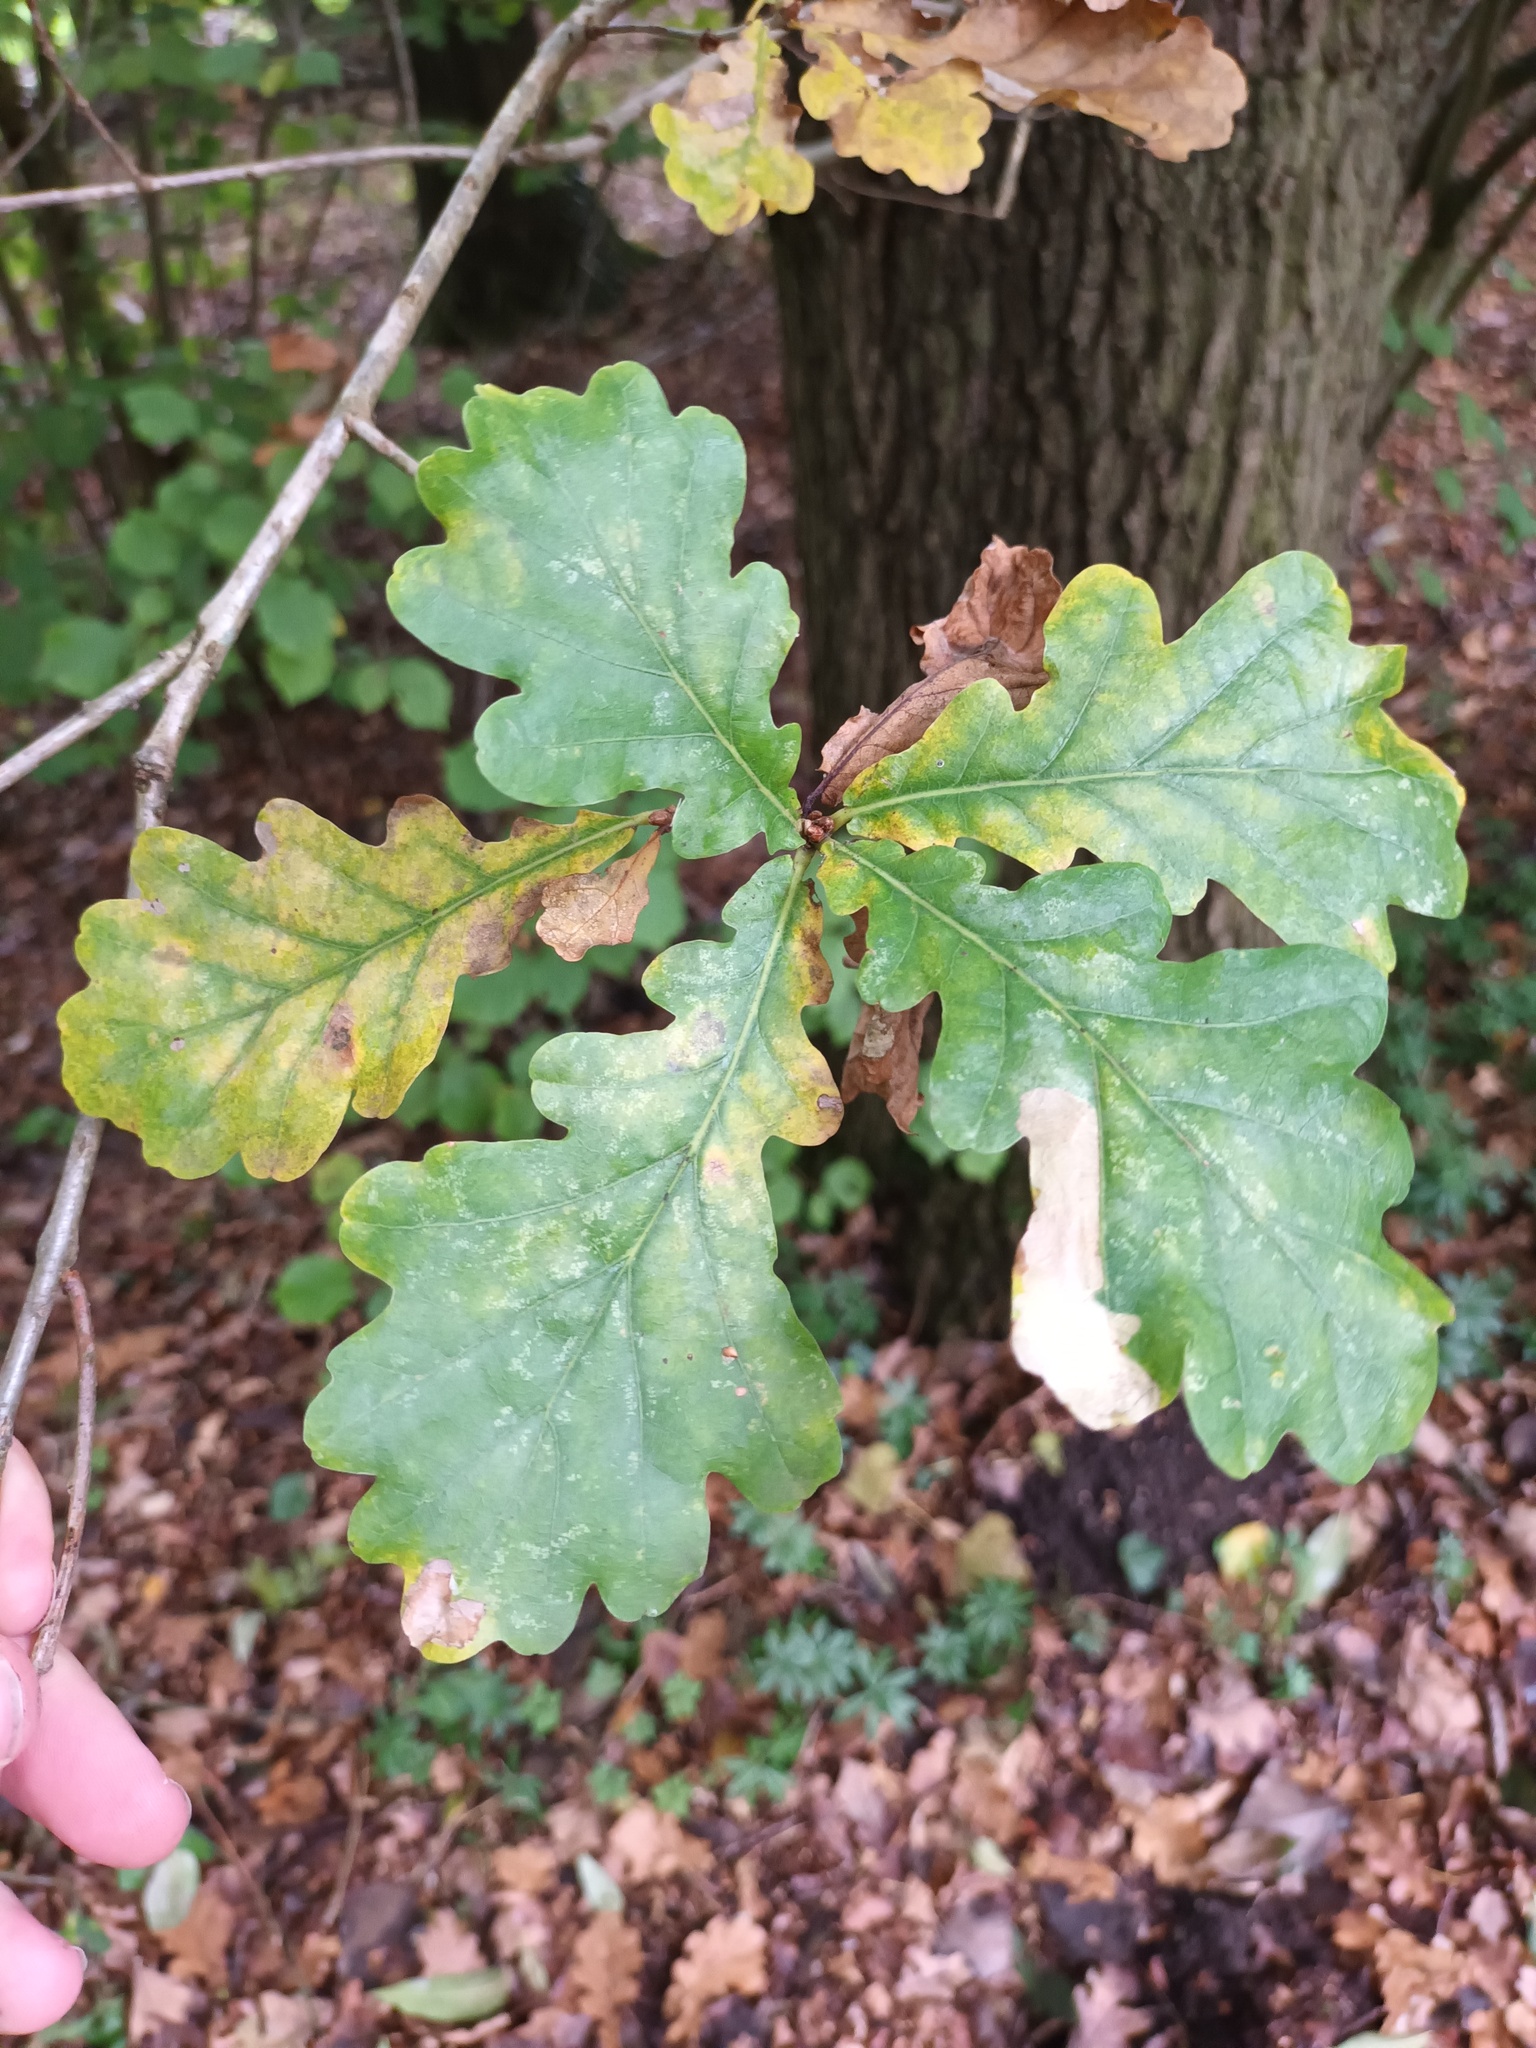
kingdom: Plantae
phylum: Tracheophyta
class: Magnoliopsida
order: Fagales
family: Fagaceae
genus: Quercus
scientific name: Quercus robur
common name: Pedunculate oak
